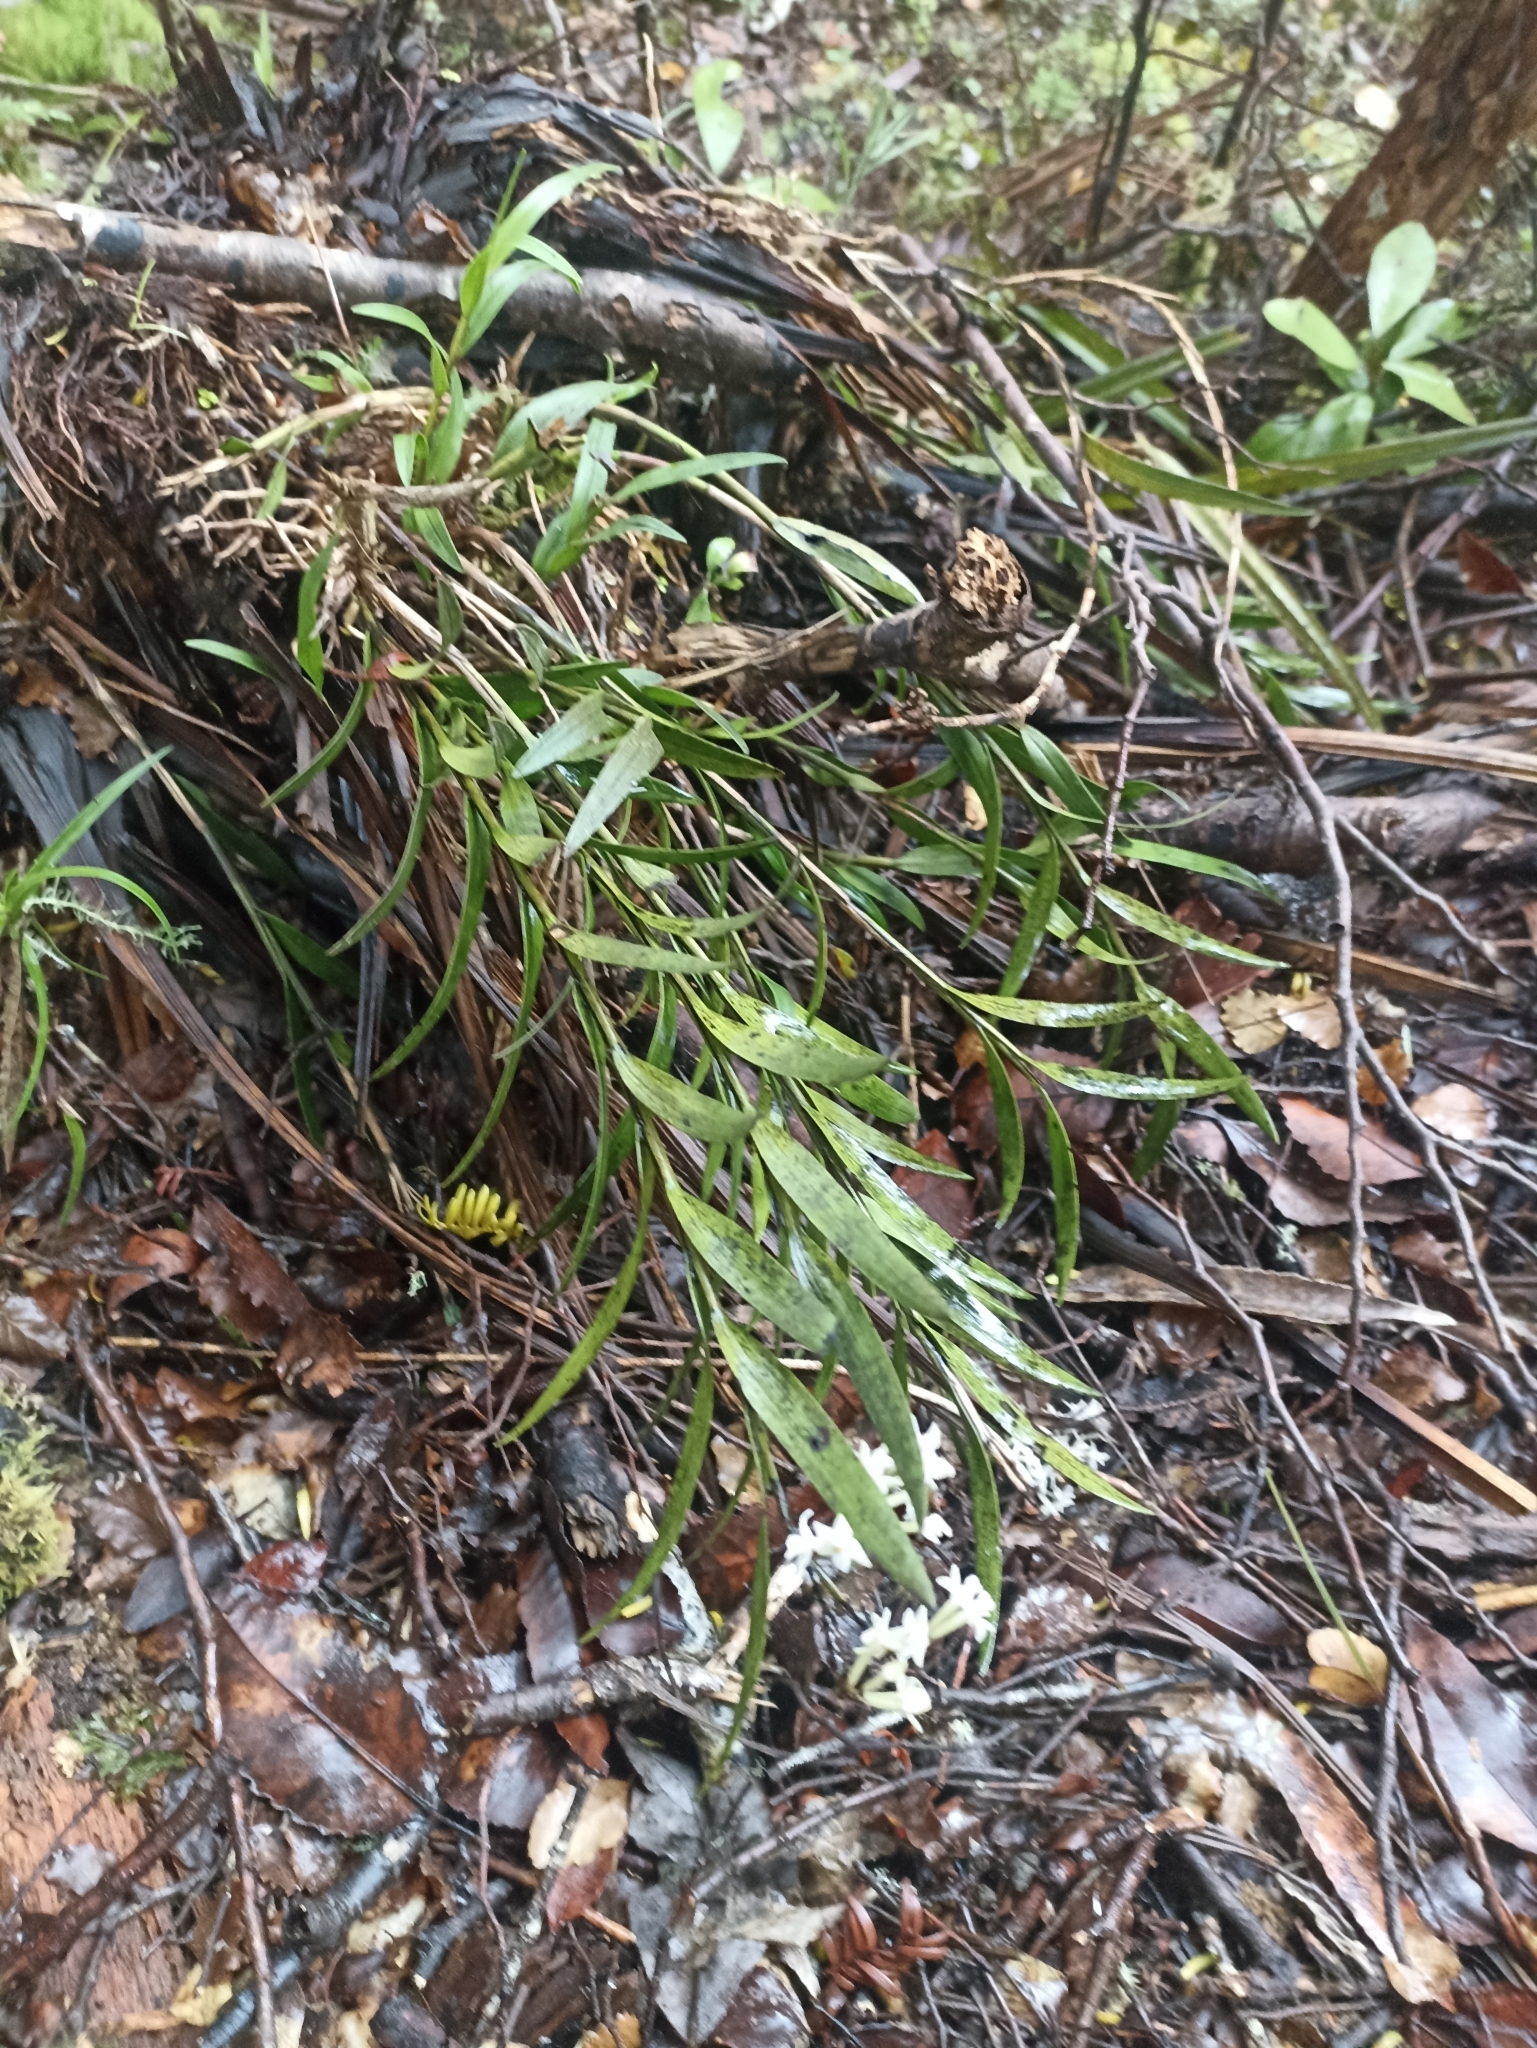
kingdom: Plantae
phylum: Tracheophyta
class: Liliopsida
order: Asparagales
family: Orchidaceae
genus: Earina
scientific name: Earina autumnalis
